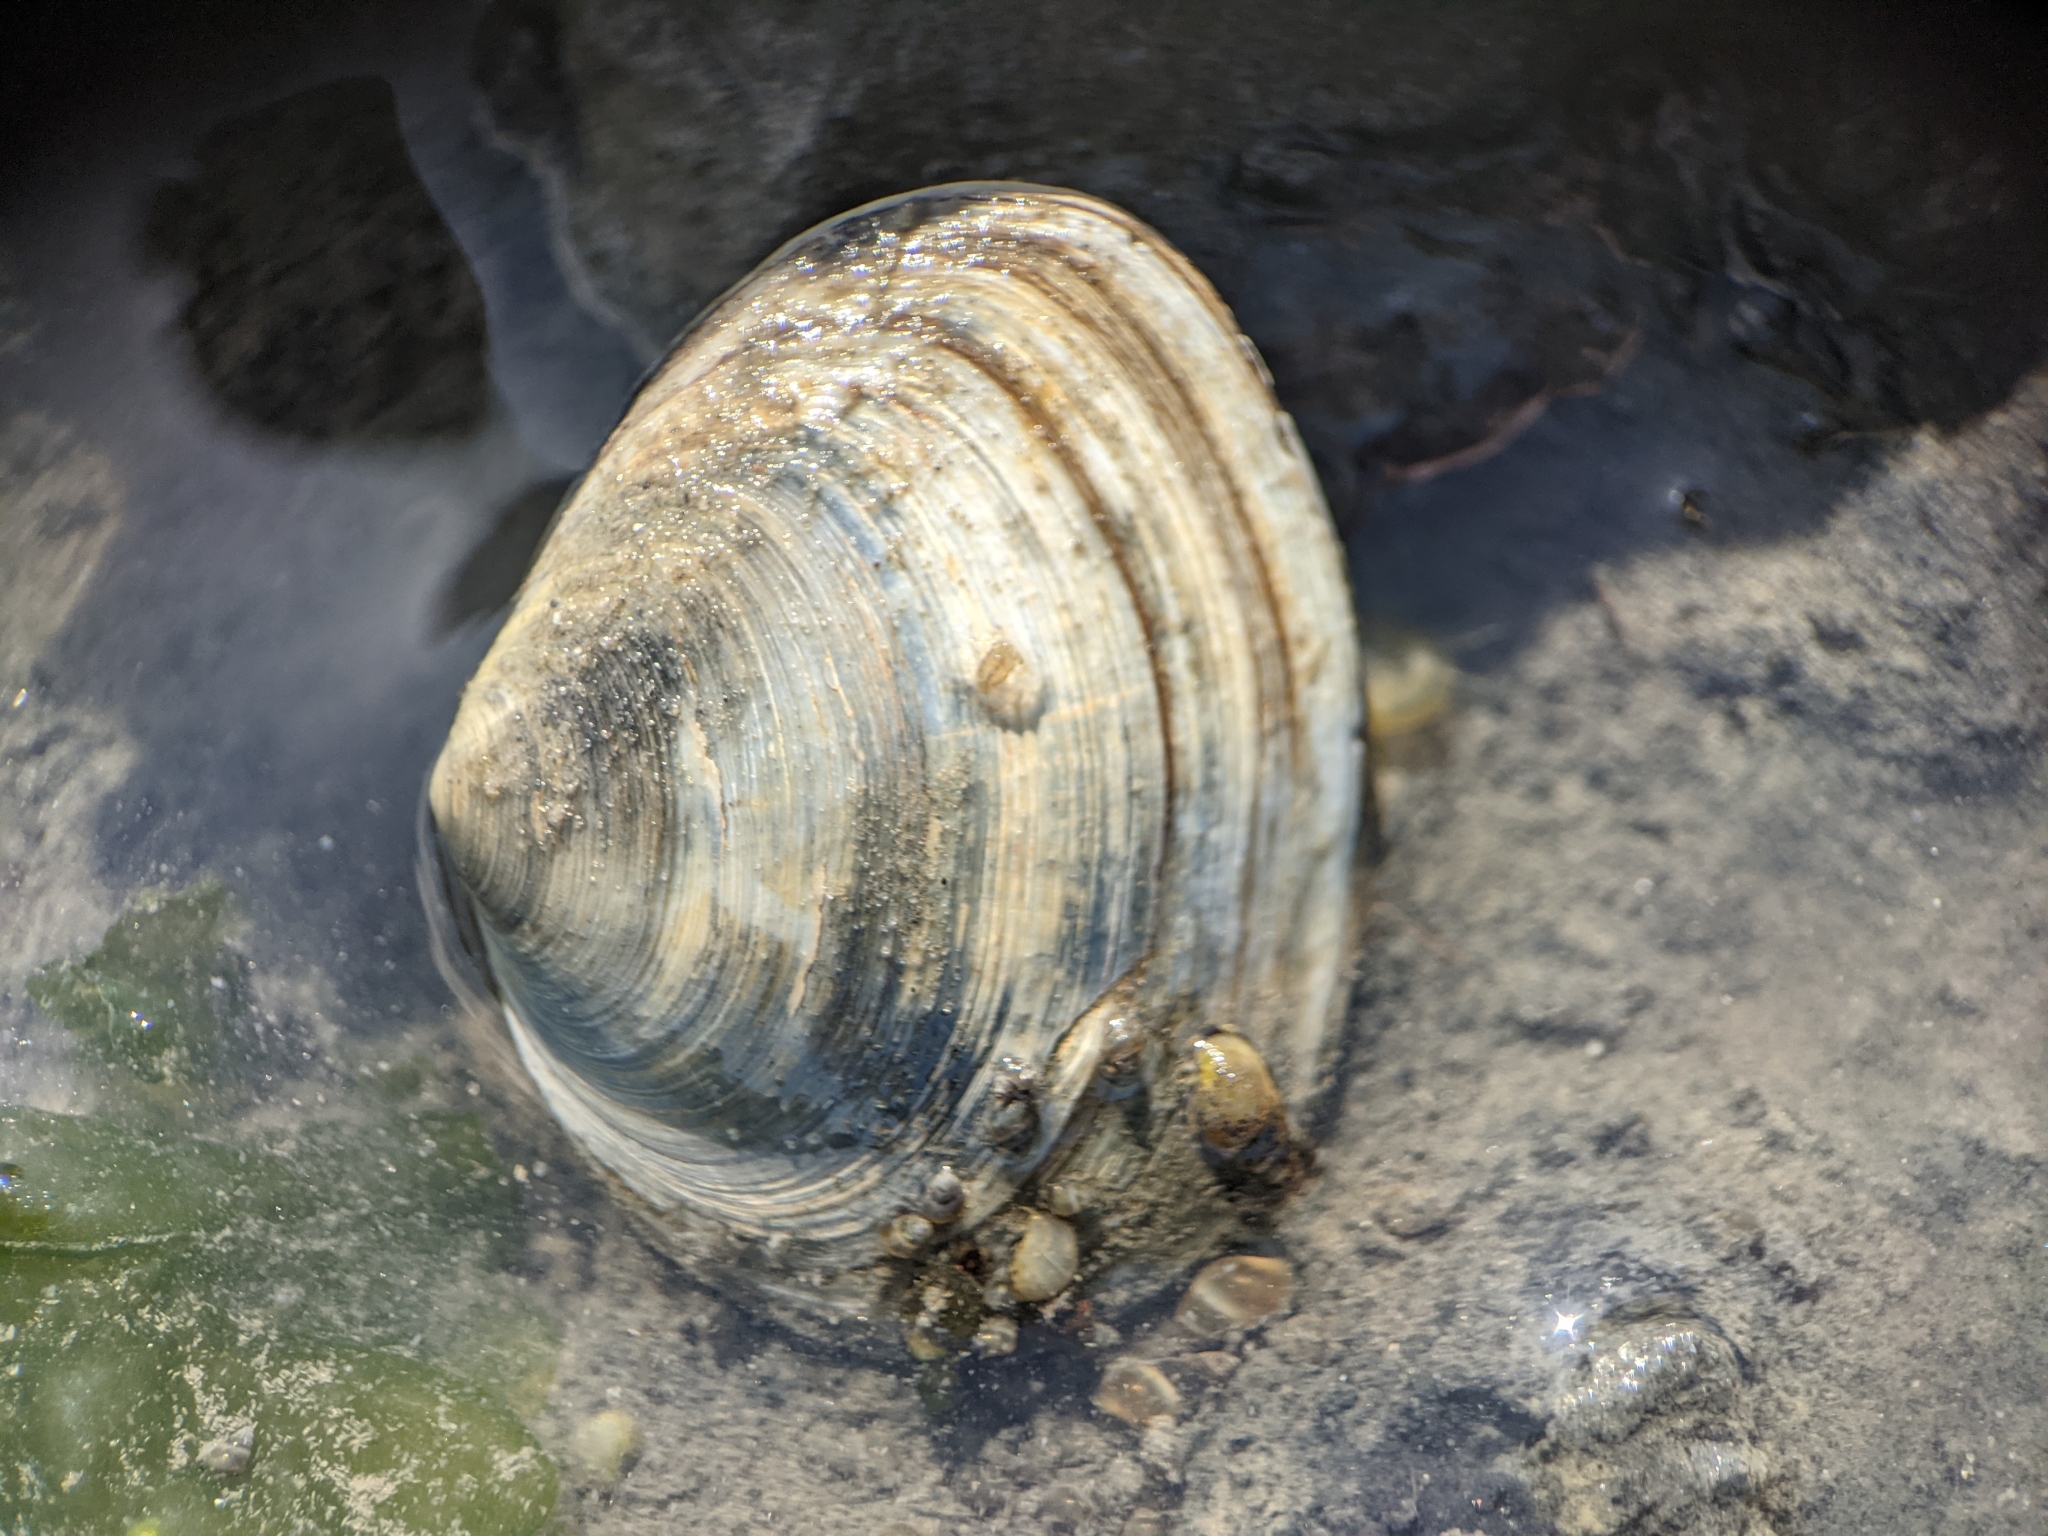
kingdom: Animalia
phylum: Mollusca
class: Bivalvia
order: Cardiida
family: Semelidae
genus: Scrobicularia
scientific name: Scrobicularia plana
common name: Peppery furrow shell
